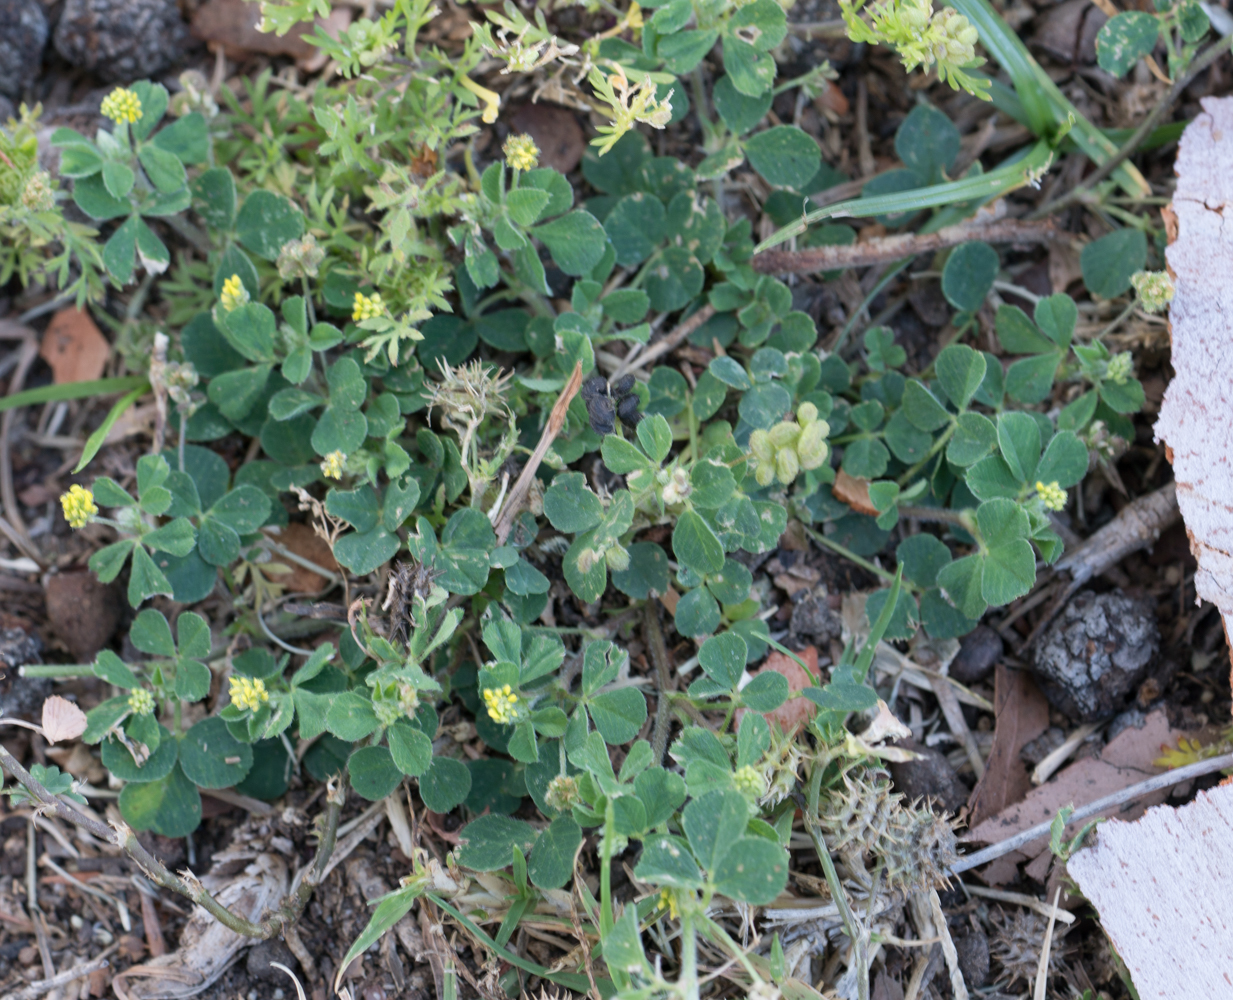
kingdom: Plantae
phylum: Tracheophyta
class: Magnoliopsida
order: Fabales
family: Fabaceae
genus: Medicago
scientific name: Medicago lupulina
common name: Black medick
